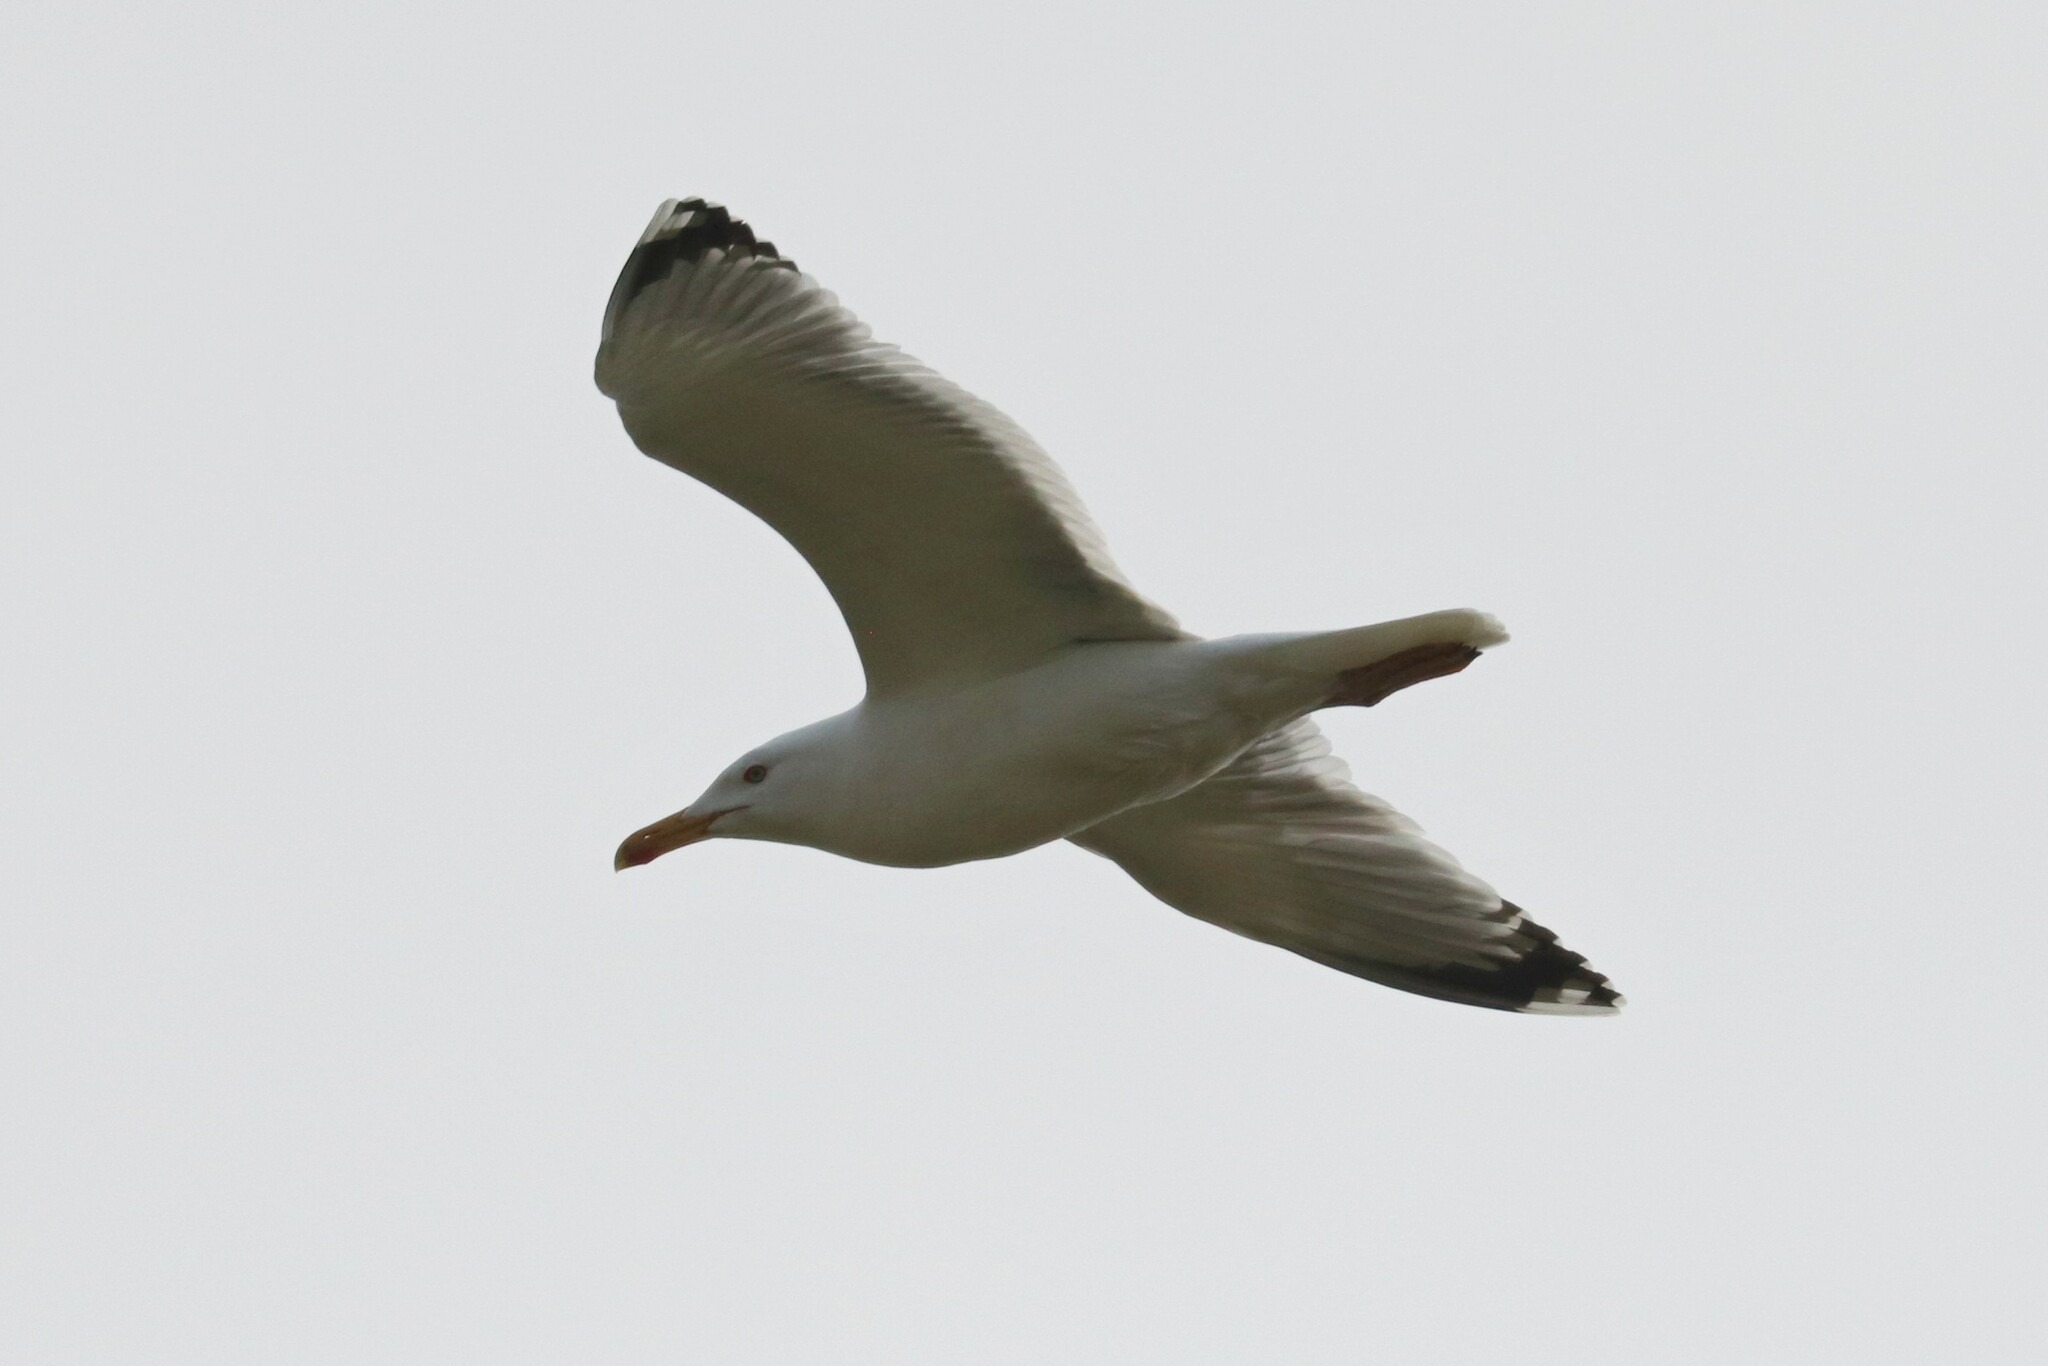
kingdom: Animalia
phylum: Chordata
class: Aves
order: Charadriiformes
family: Laridae
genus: Larus
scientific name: Larus cachinnans
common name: Caspian gull
